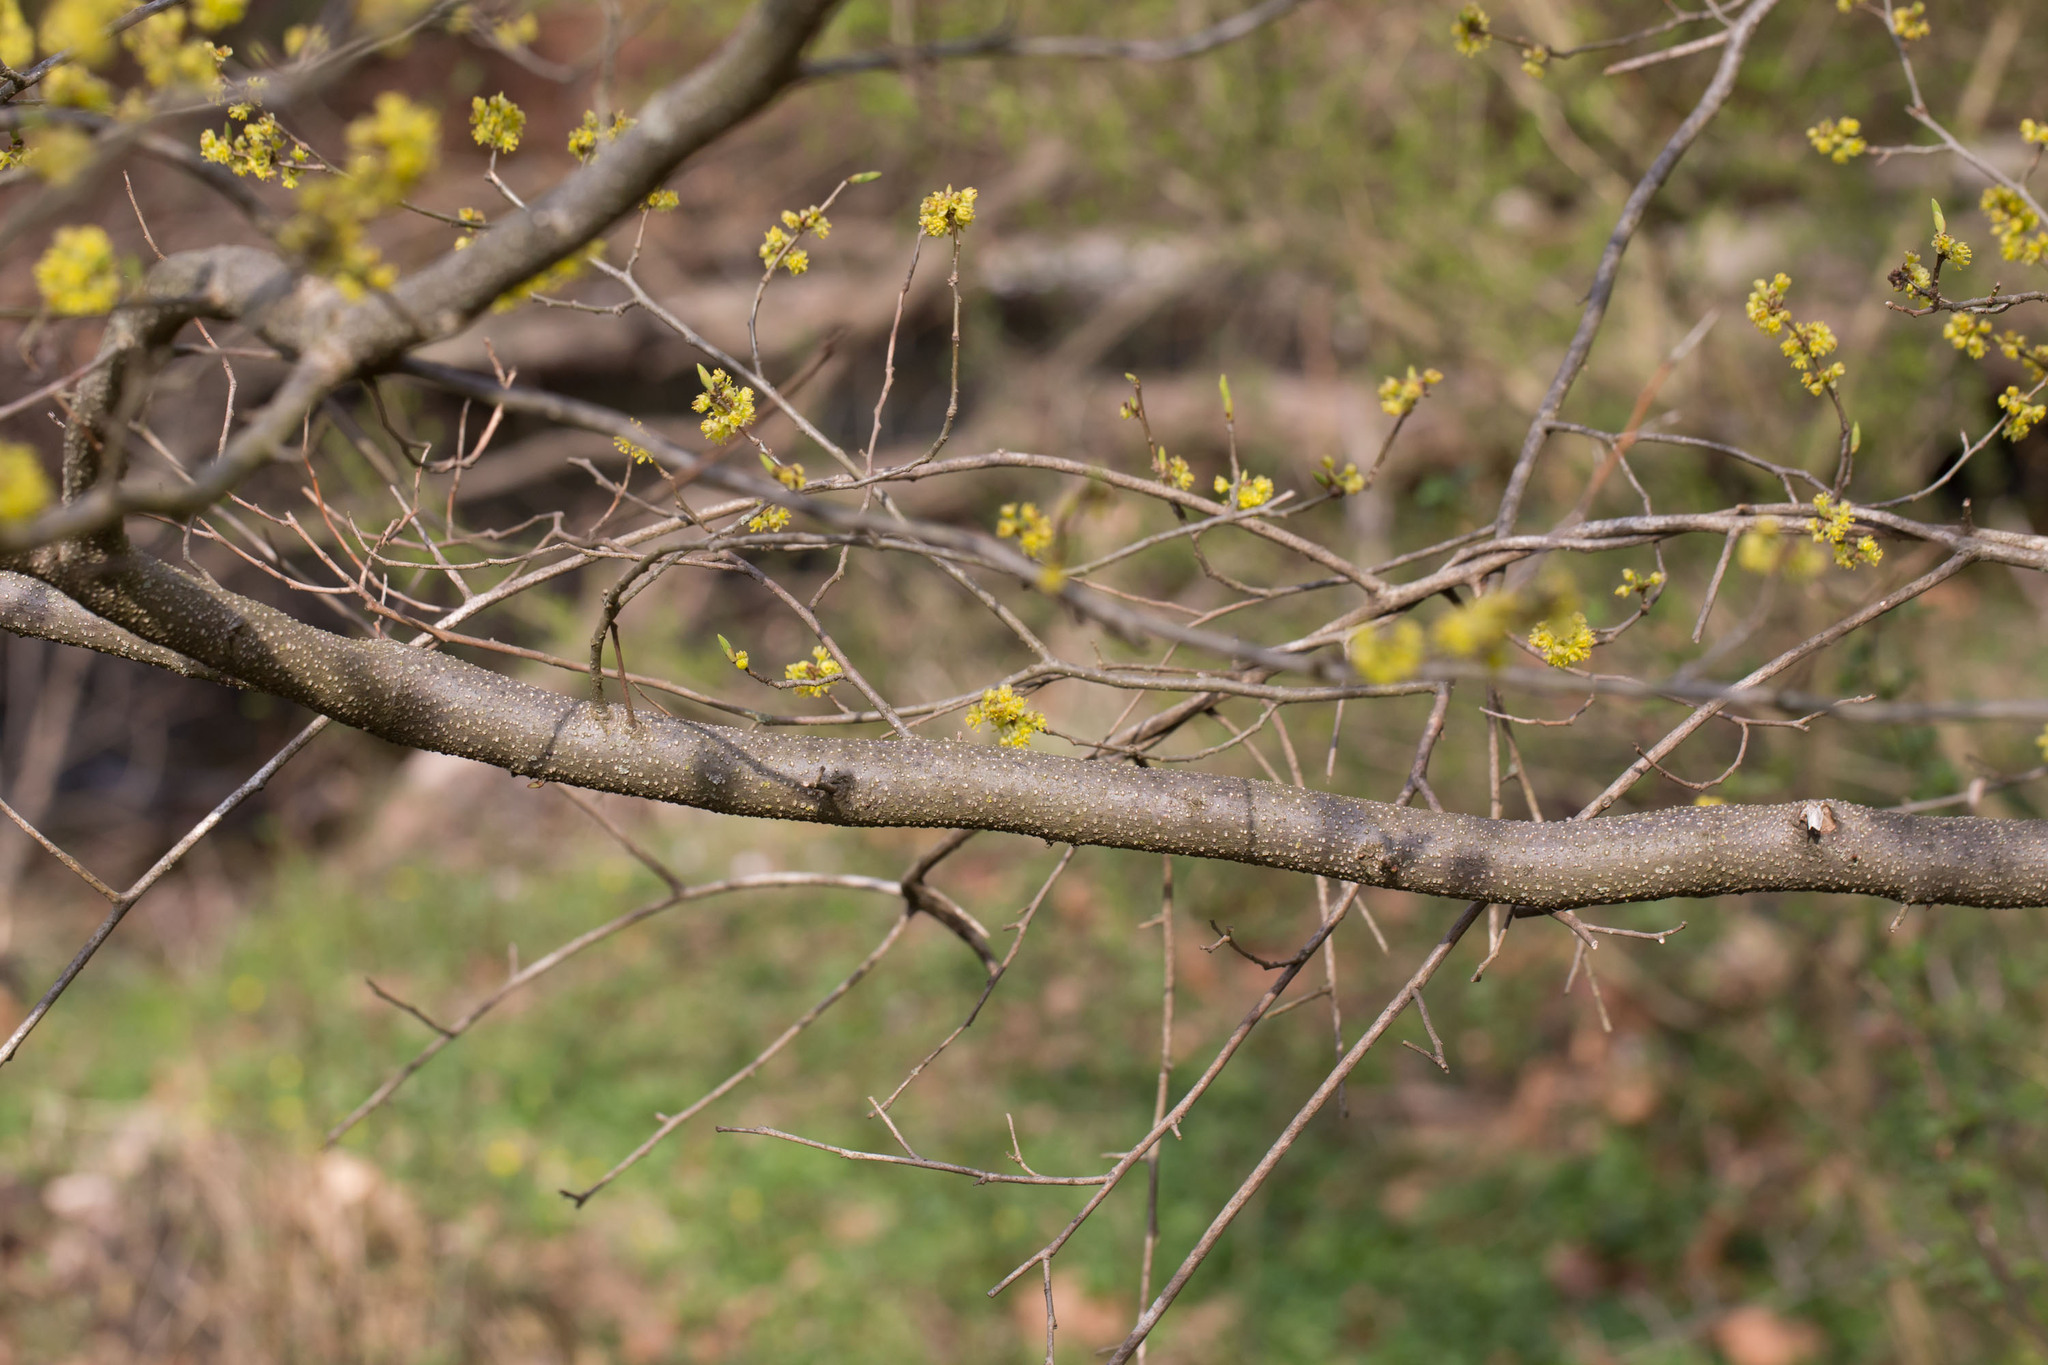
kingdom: Plantae
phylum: Tracheophyta
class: Magnoliopsida
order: Laurales
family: Lauraceae
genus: Lindera
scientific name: Lindera benzoin
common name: Spicebush
